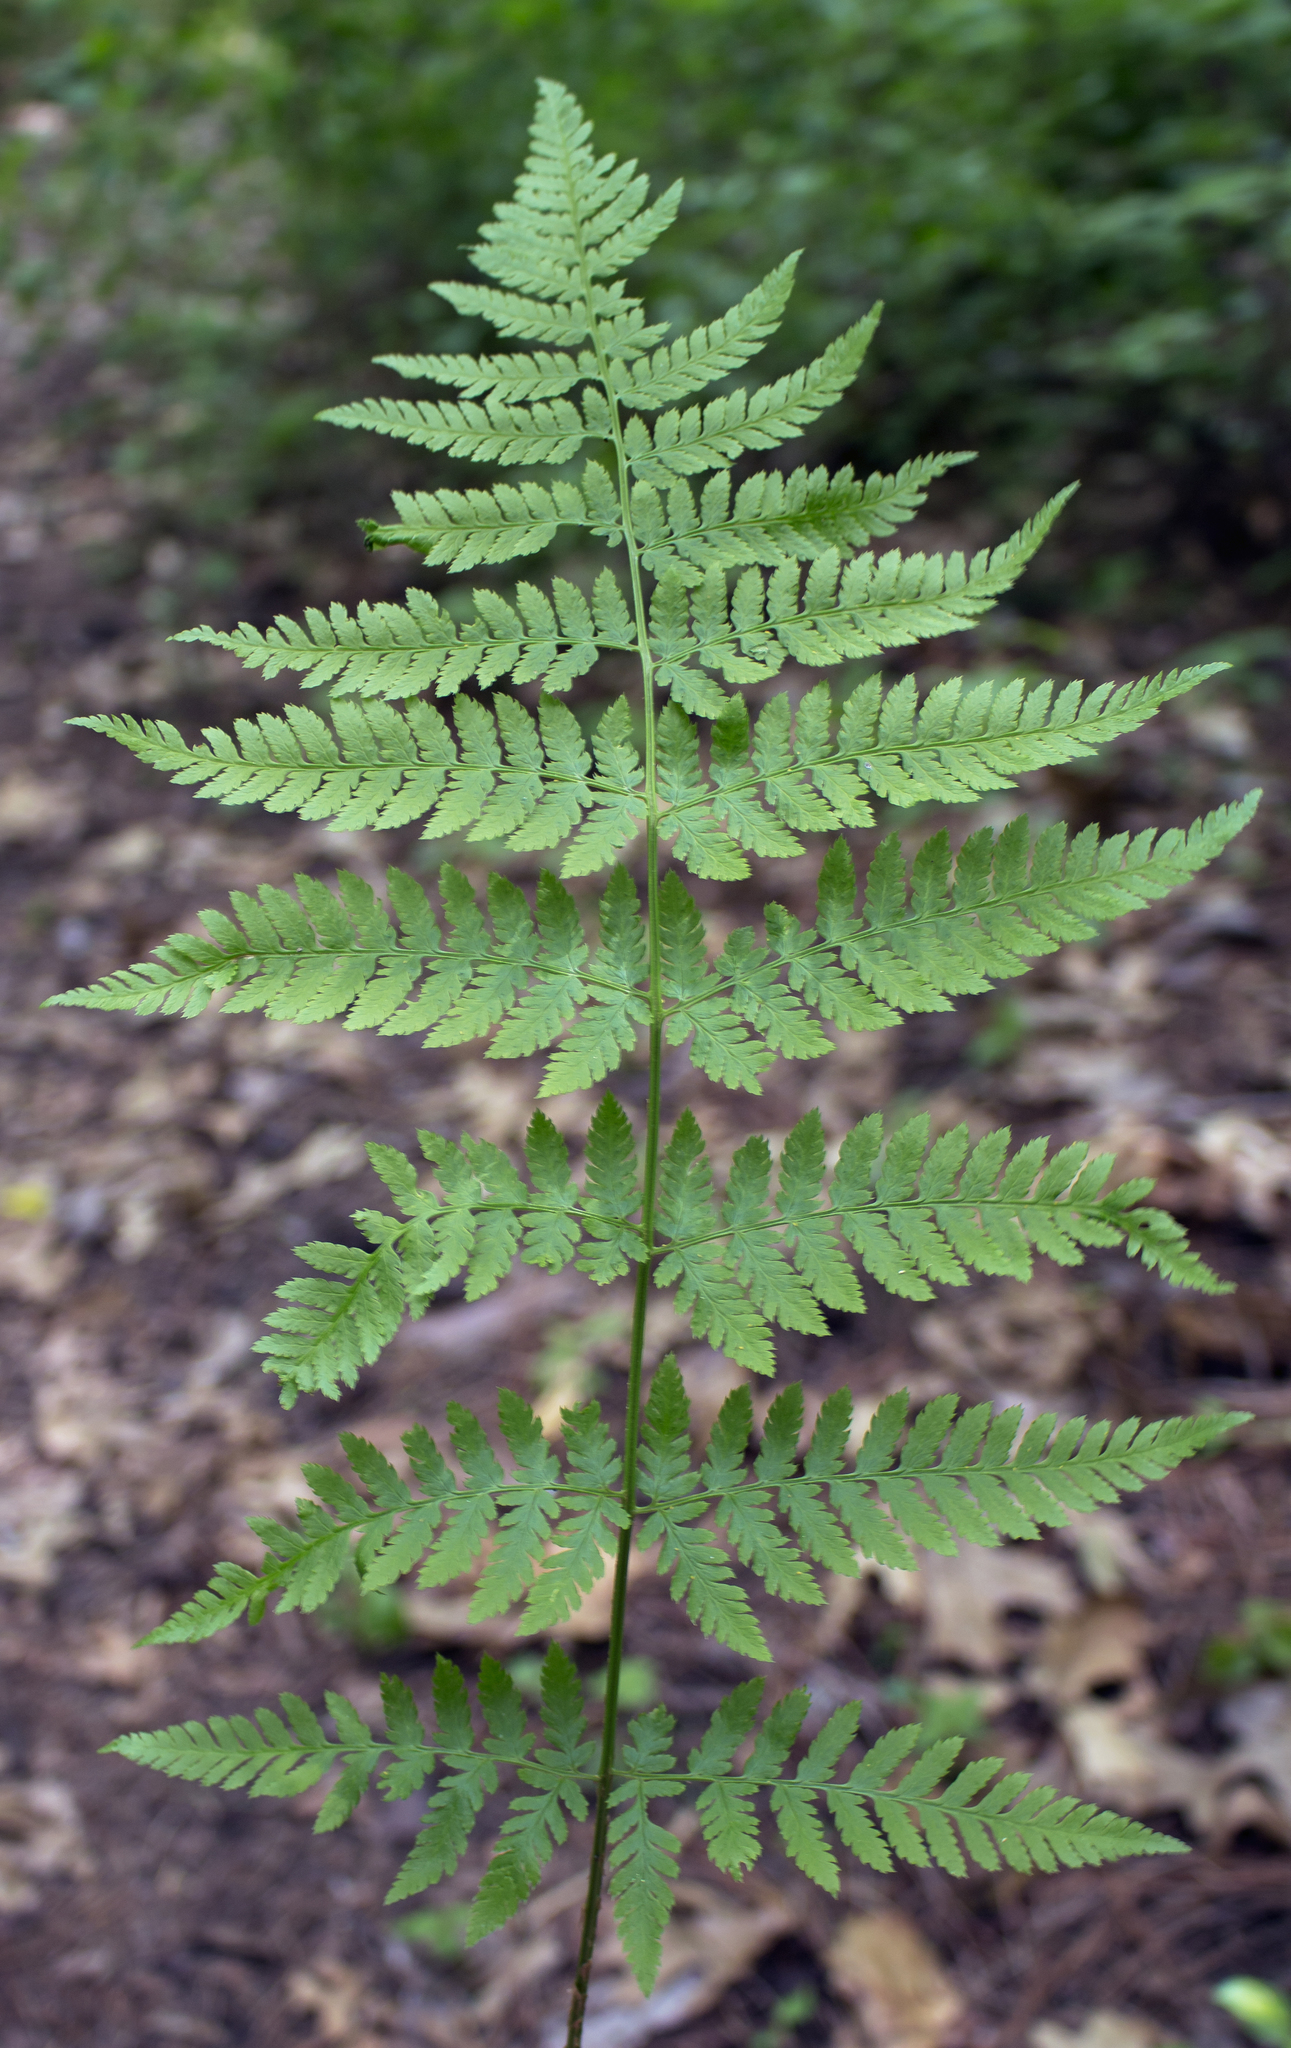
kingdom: Plantae
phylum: Tracheophyta
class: Polypodiopsida
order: Polypodiales
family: Dryopteridaceae
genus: Dryopteris
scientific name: Dryopteris carthusiana
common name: Narrow buckler-fern
